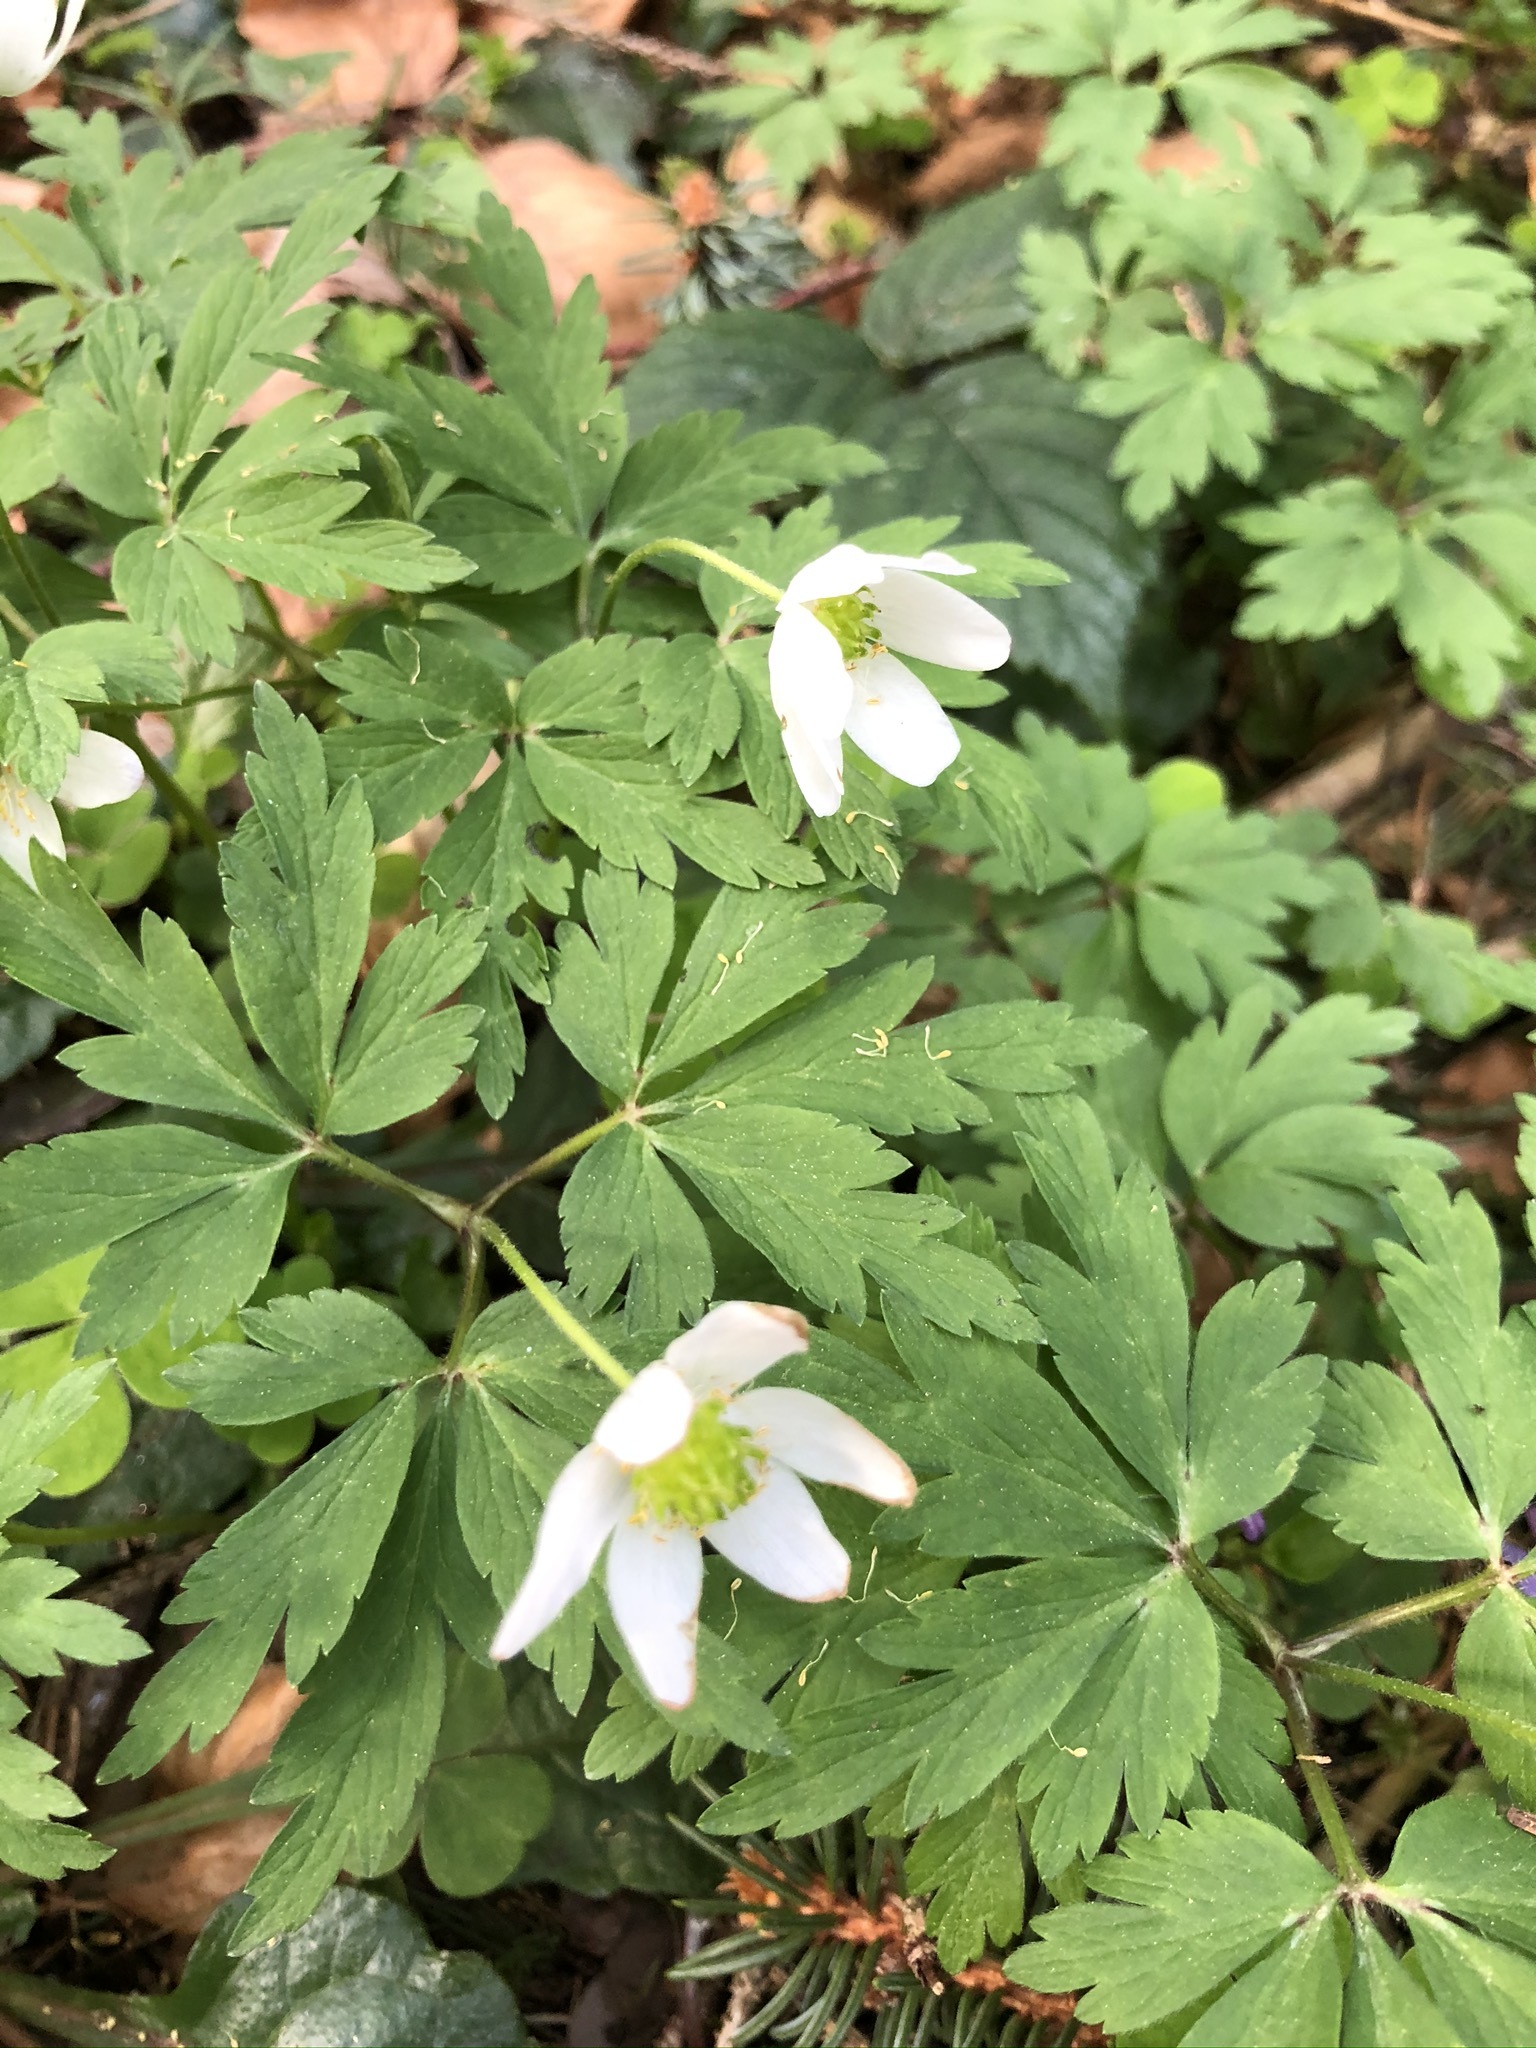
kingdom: Plantae
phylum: Tracheophyta
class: Magnoliopsida
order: Ranunculales
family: Ranunculaceae
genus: Anemone
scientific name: Anemone nemorosa
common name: Wood anemone
